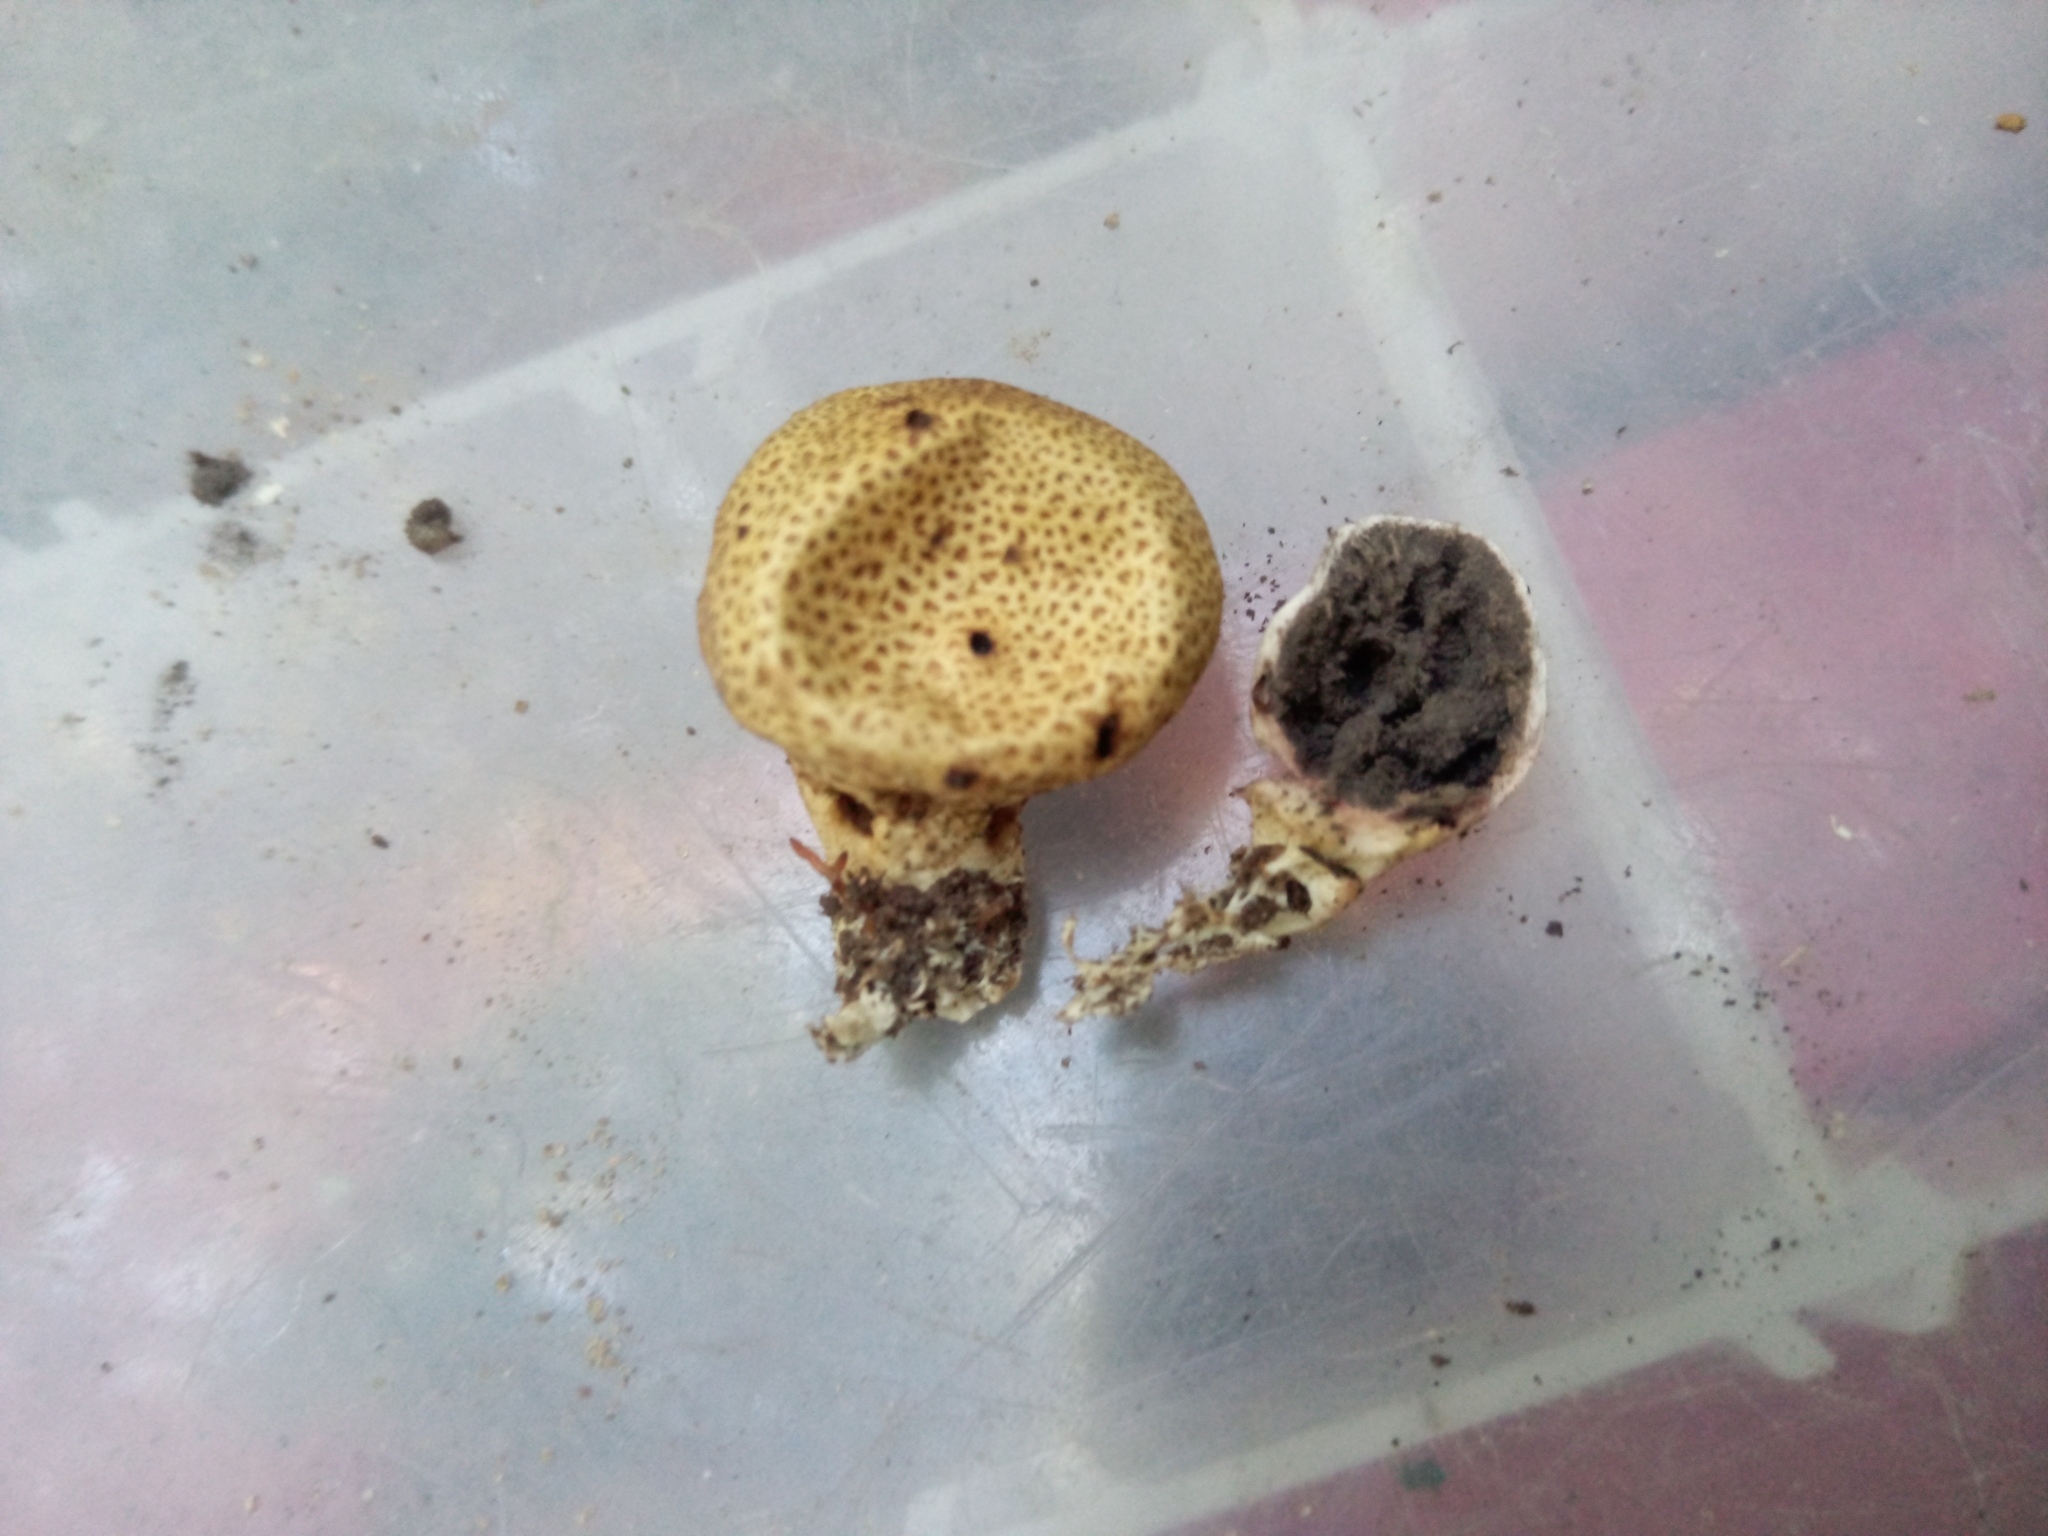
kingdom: Fungi
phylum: Basidiomycota
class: Agaricomycetes
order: Boletales
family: Sclerodermataceae
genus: Scleroderma
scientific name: Scleroderma areolatum
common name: Leopard earthball
